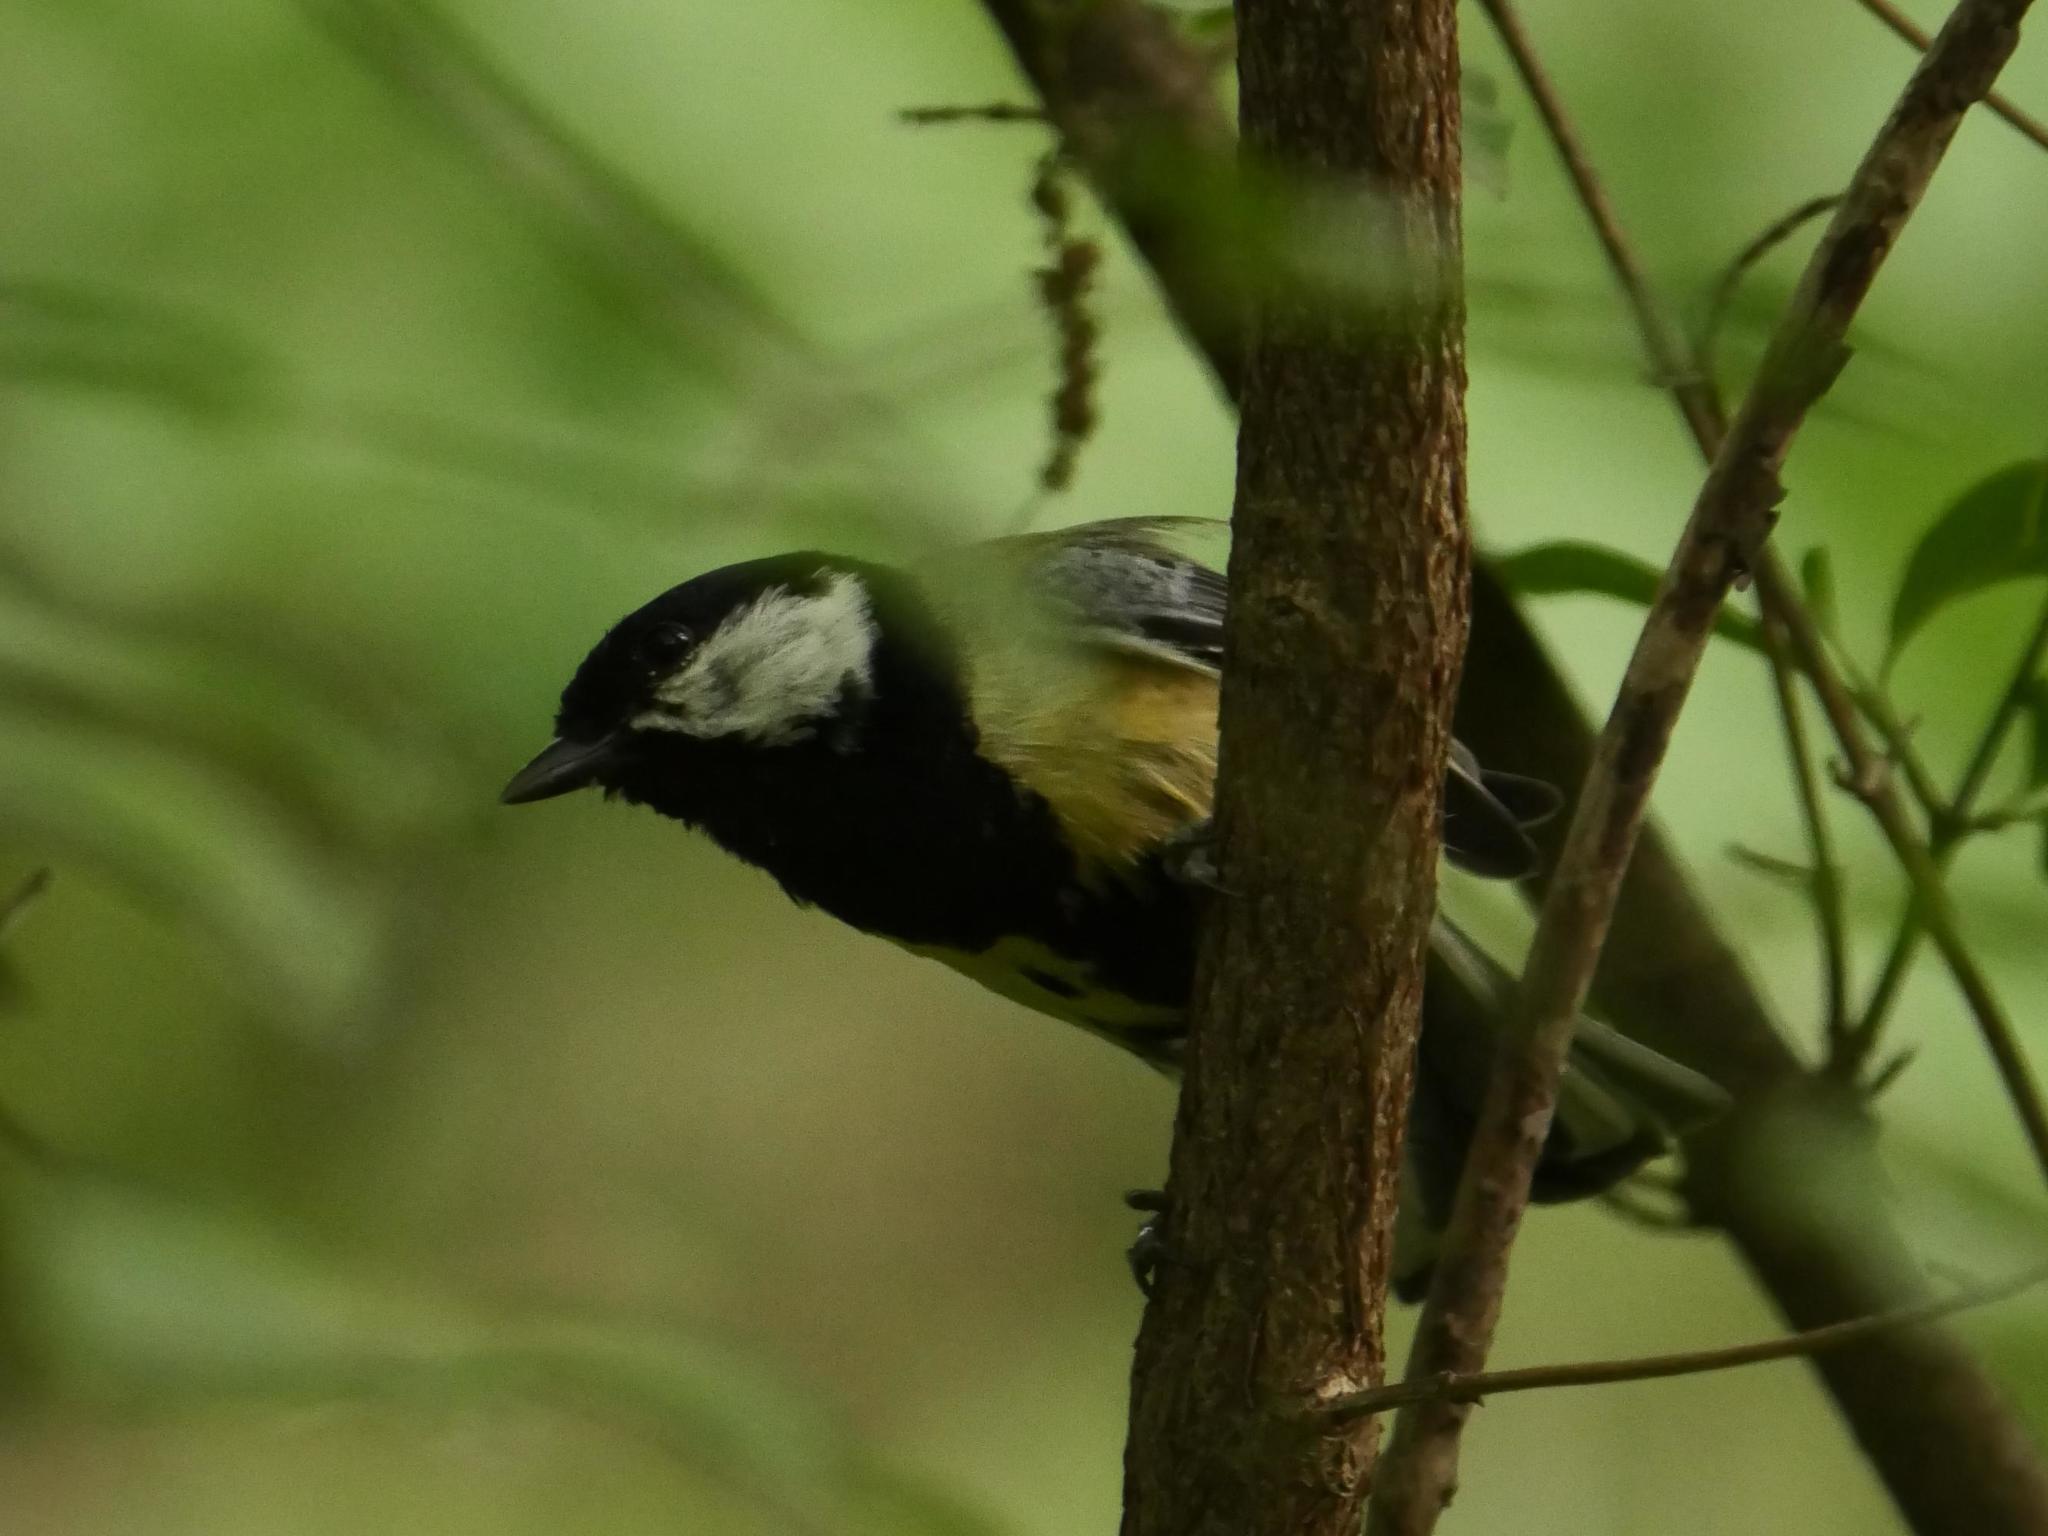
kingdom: Animalia
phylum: Chordata
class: Aves
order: Passeriformes
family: Paridae
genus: Parus
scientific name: Parus major
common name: Great tit
